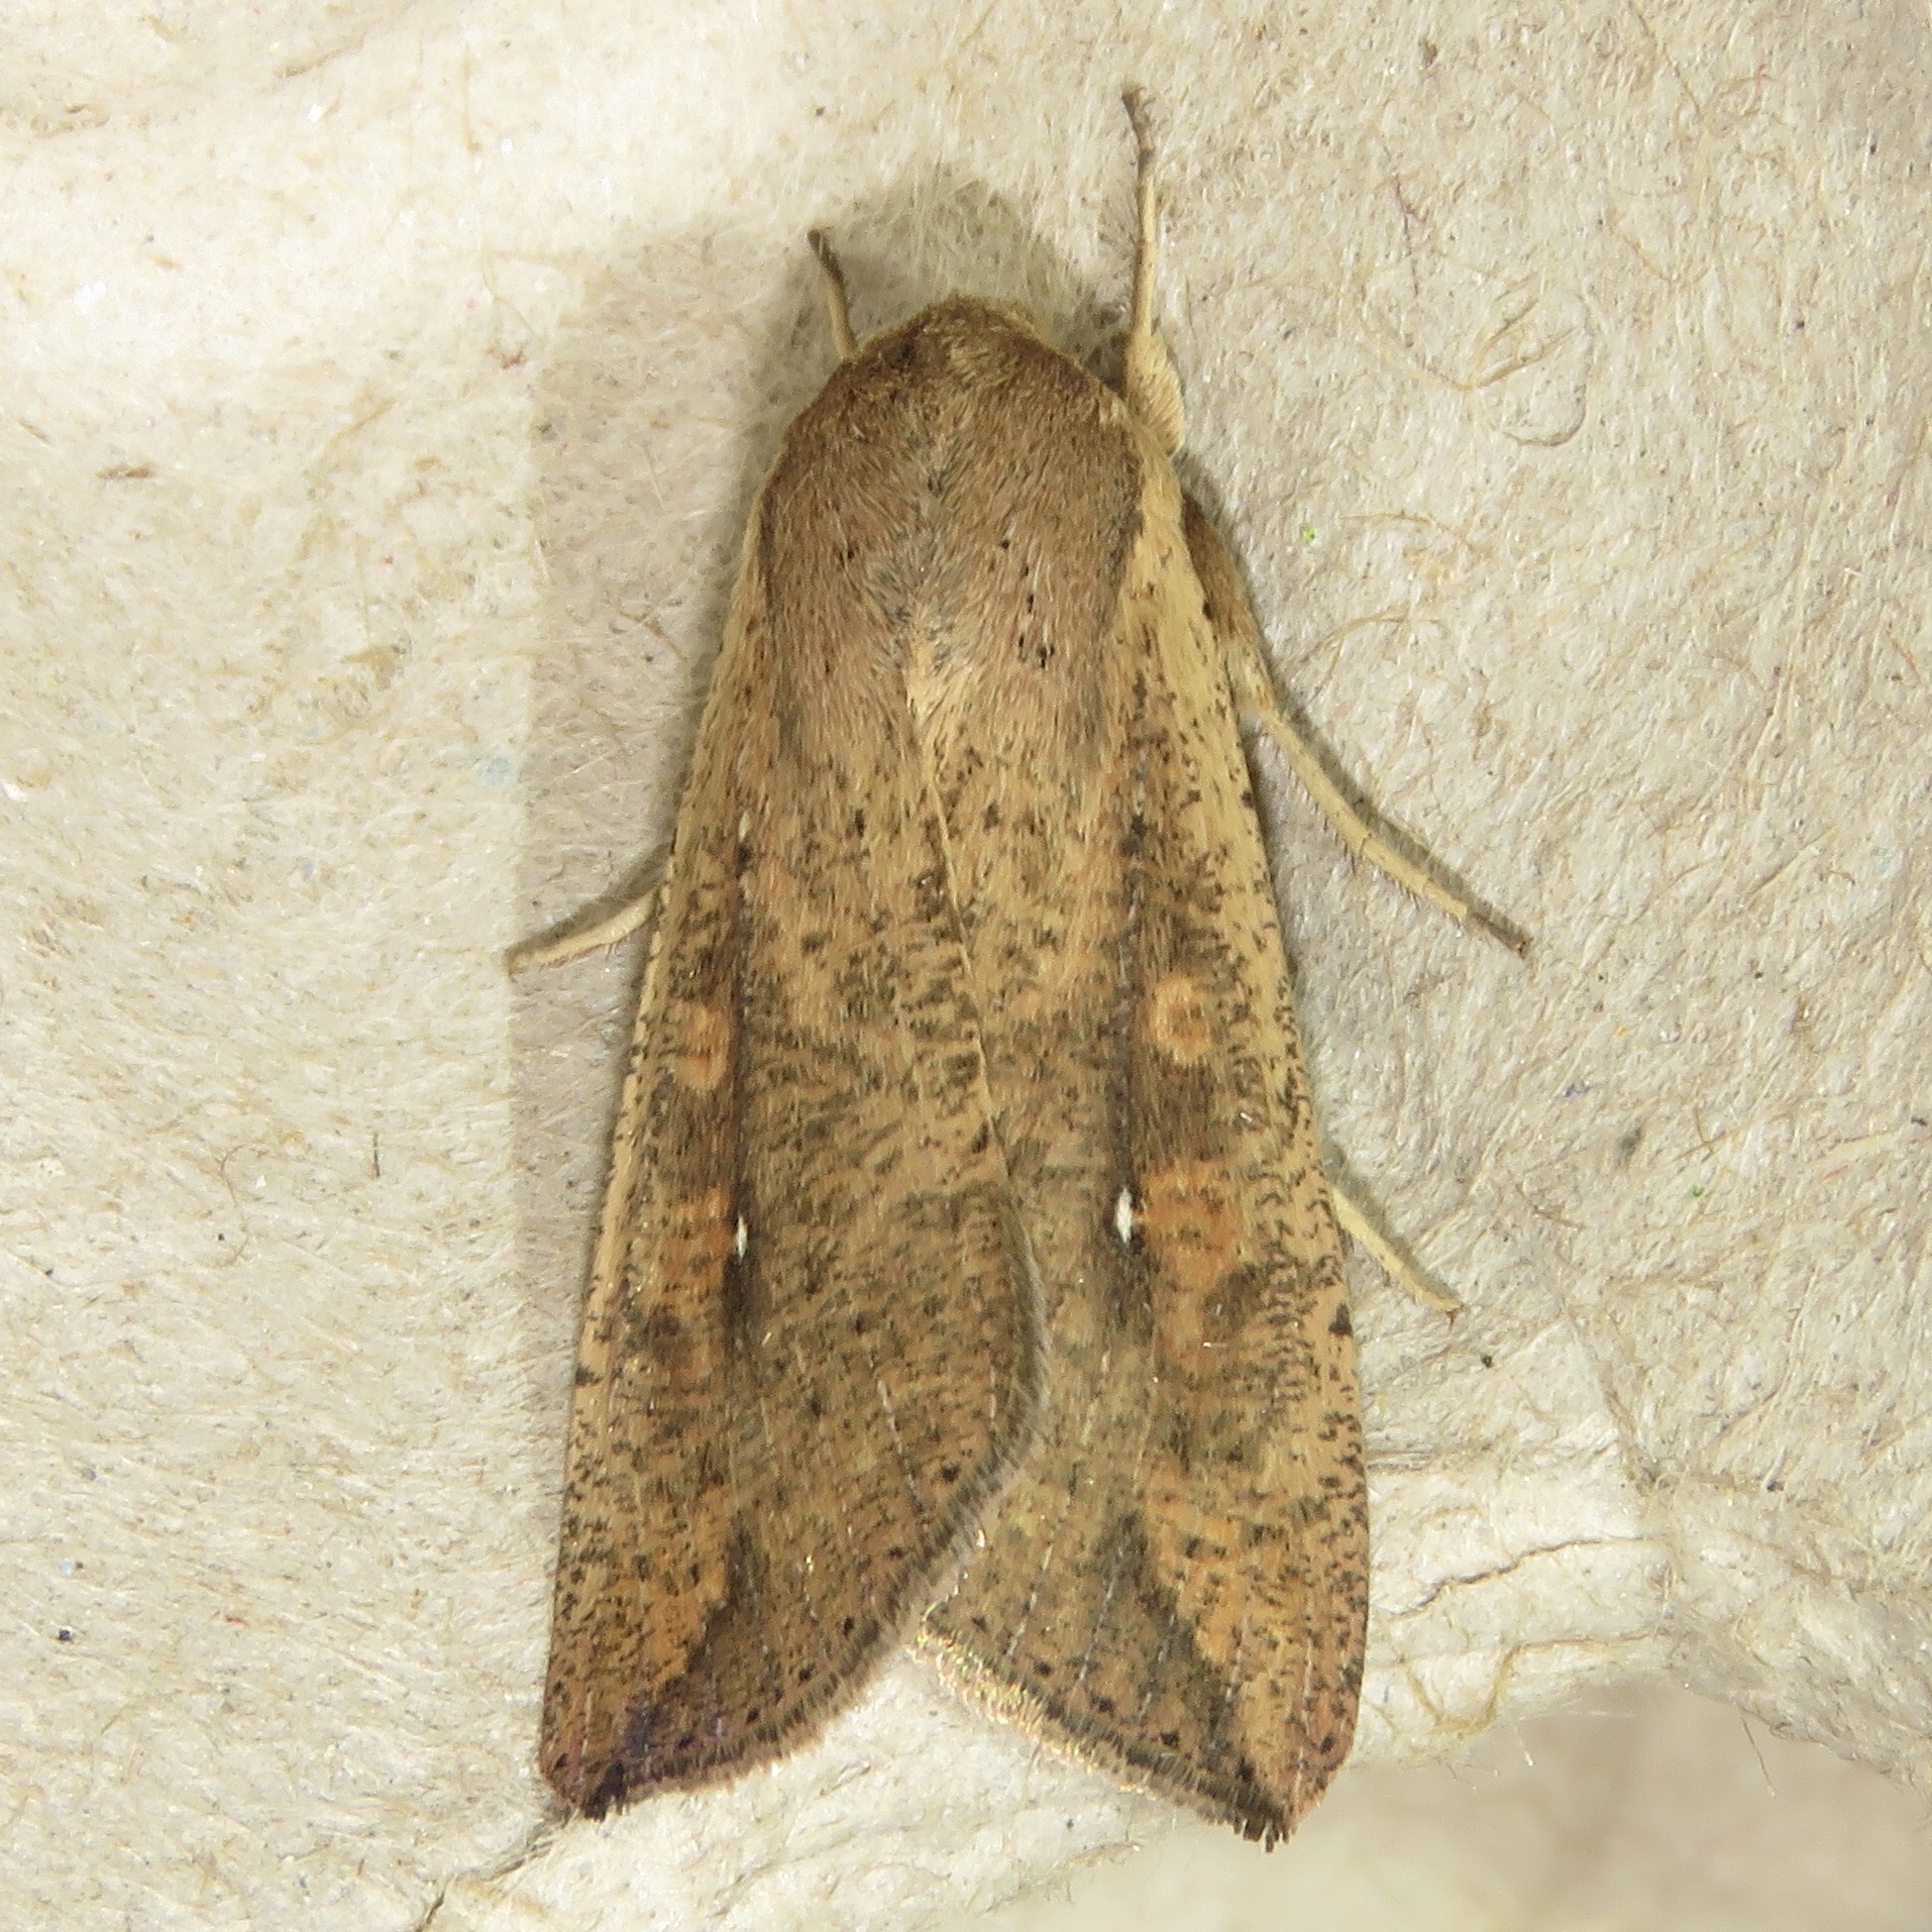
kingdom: Animalia
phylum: Arthropoda
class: Insecta
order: Lepidoptera
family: Noctuidae
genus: Mythimna
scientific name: Mythimna unipuncta
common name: White-speck
